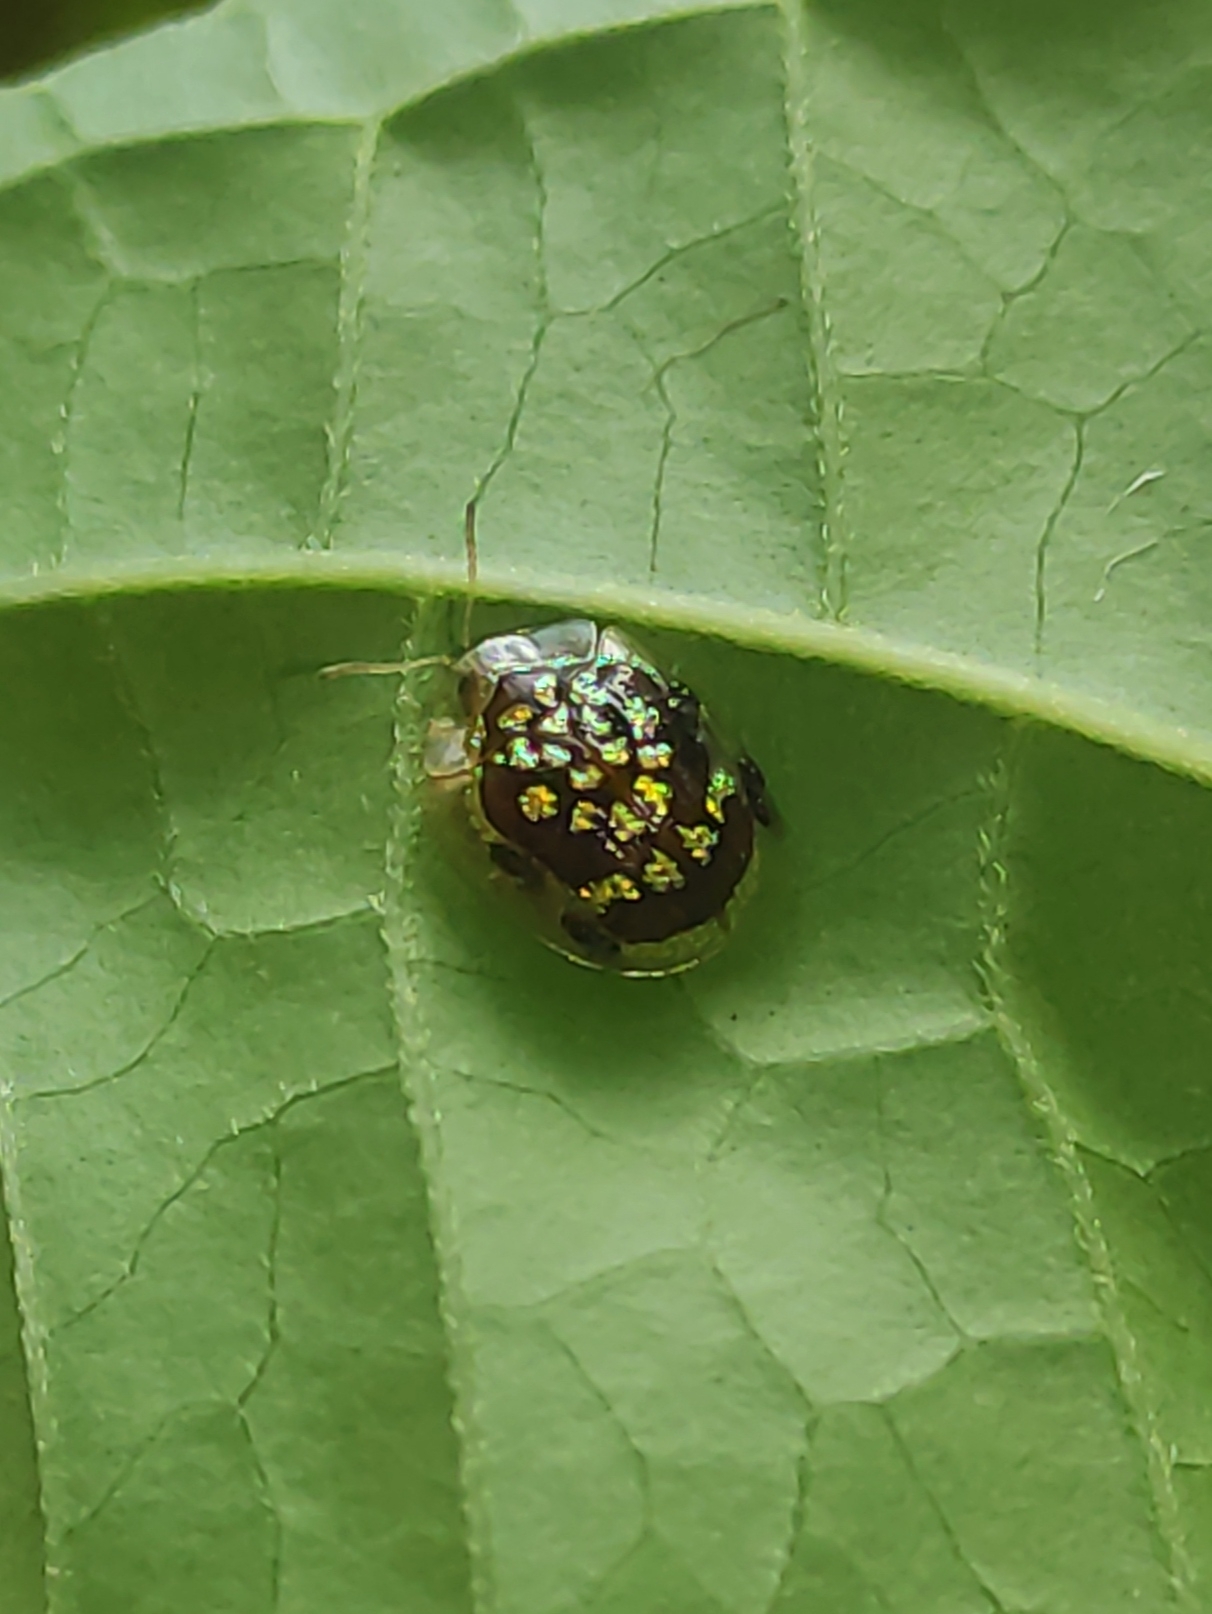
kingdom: Animalia
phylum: Arthropoda
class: Insecta
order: Coleoptera
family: Chrysomelidae
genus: Microctenochira
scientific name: Microctenochira brasiliensis
